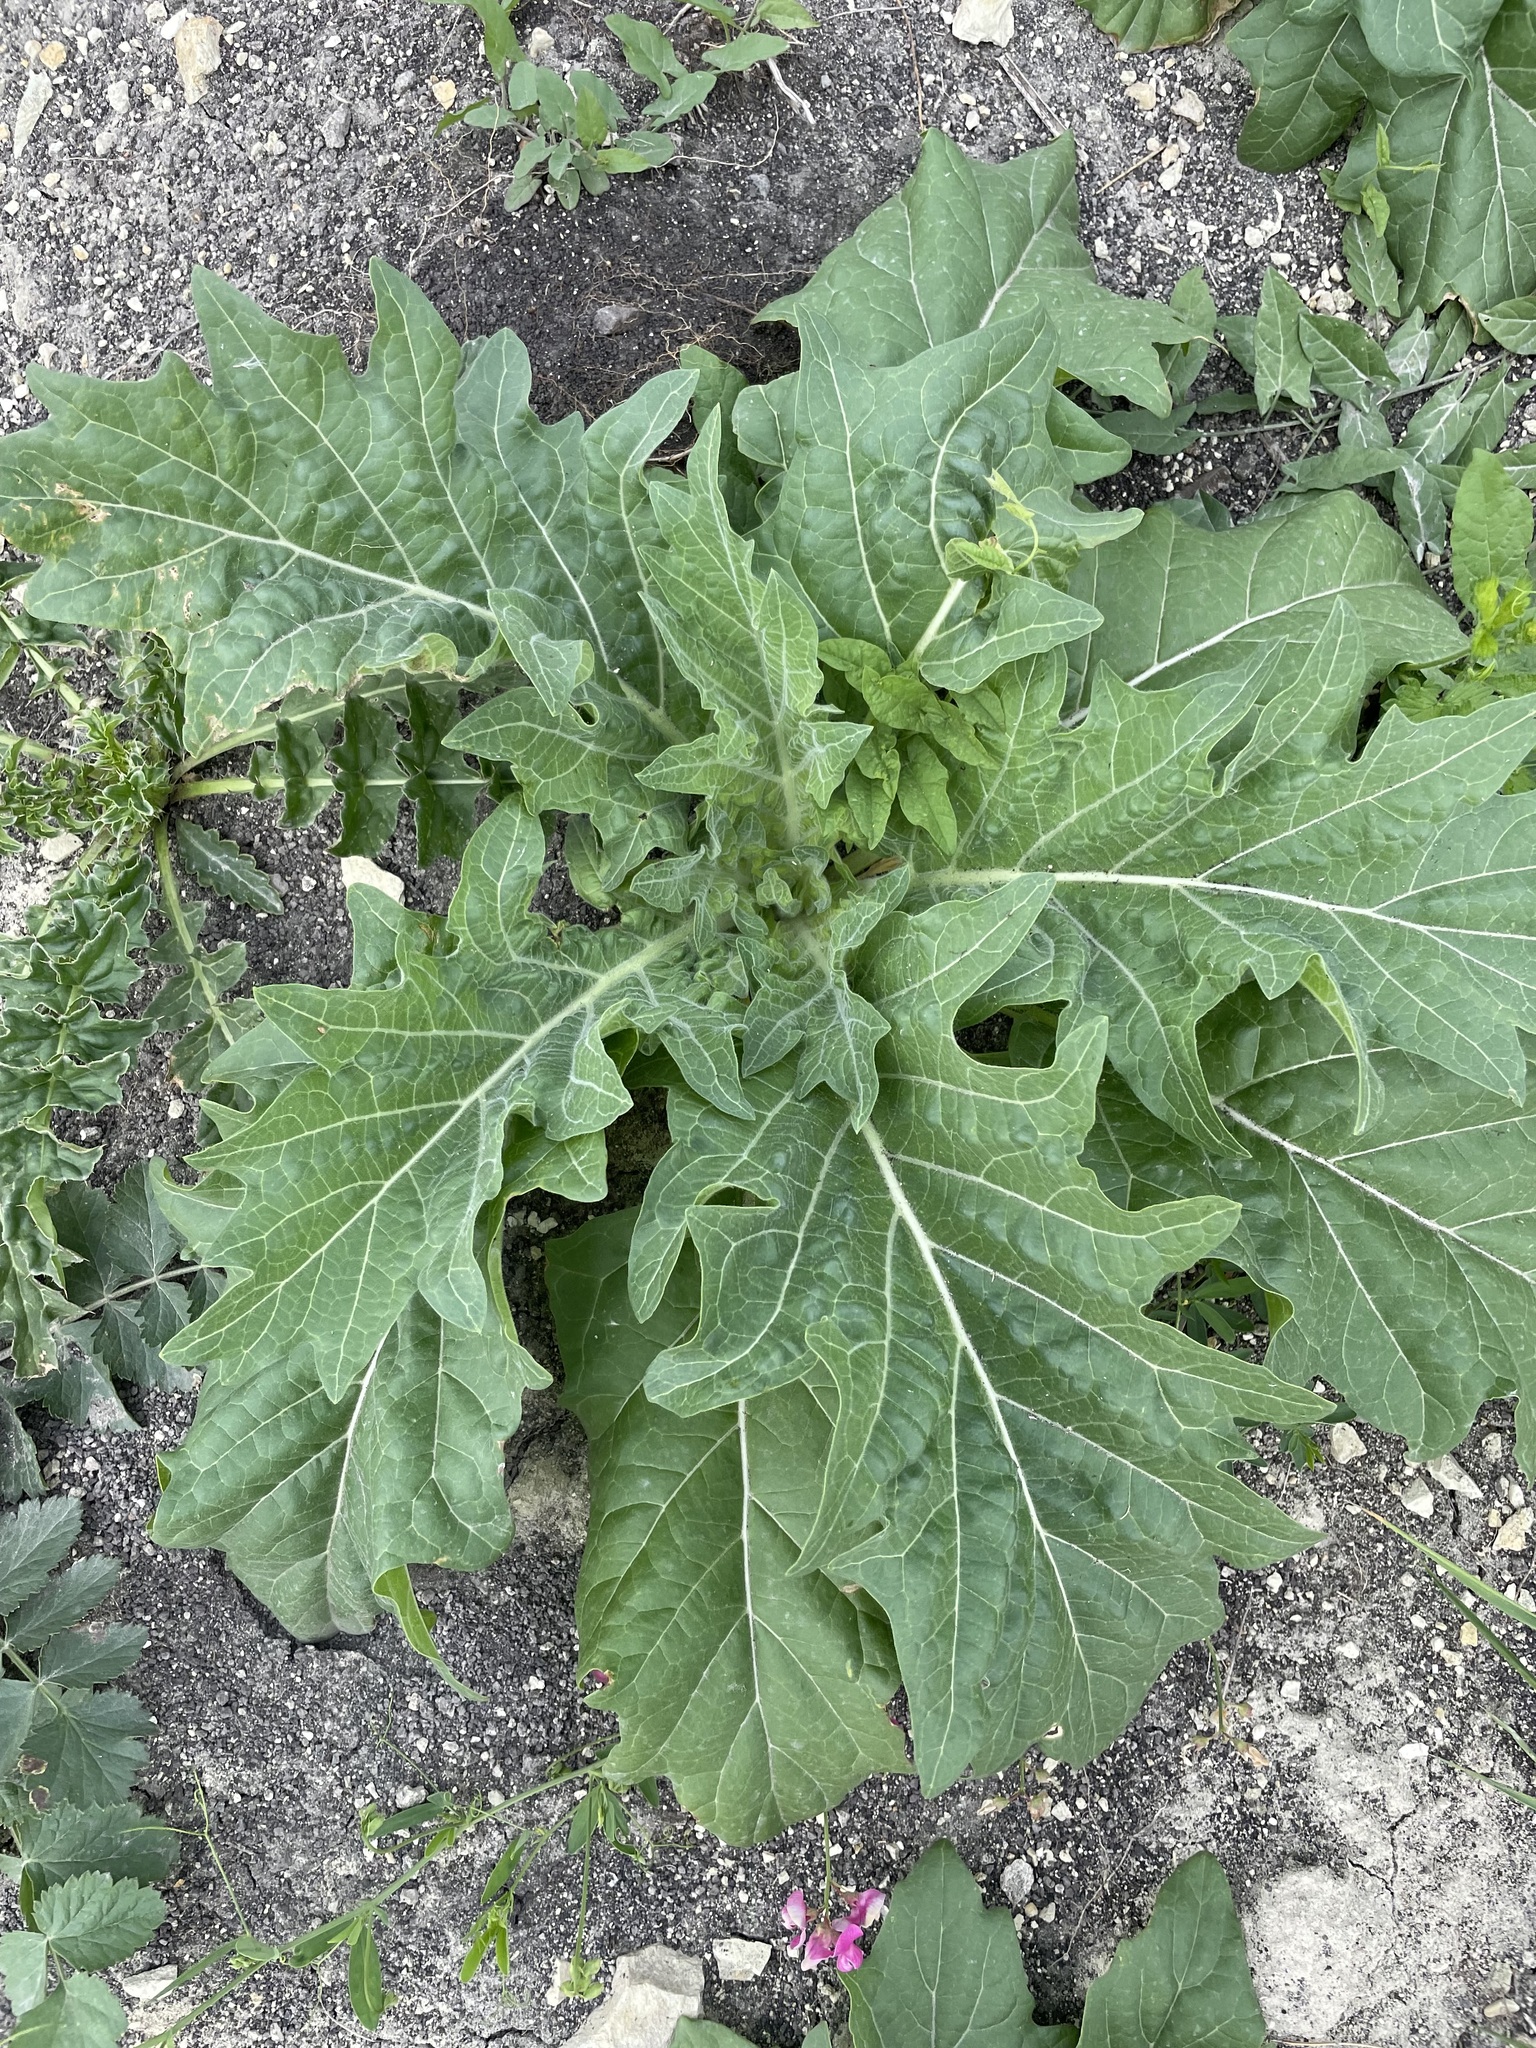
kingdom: Plantae
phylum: Tracheophyta
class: Magnoliopsida
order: Solanales
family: Solanaceae
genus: Hyoscyamus
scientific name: Hyoscyamus niger
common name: Henbane
